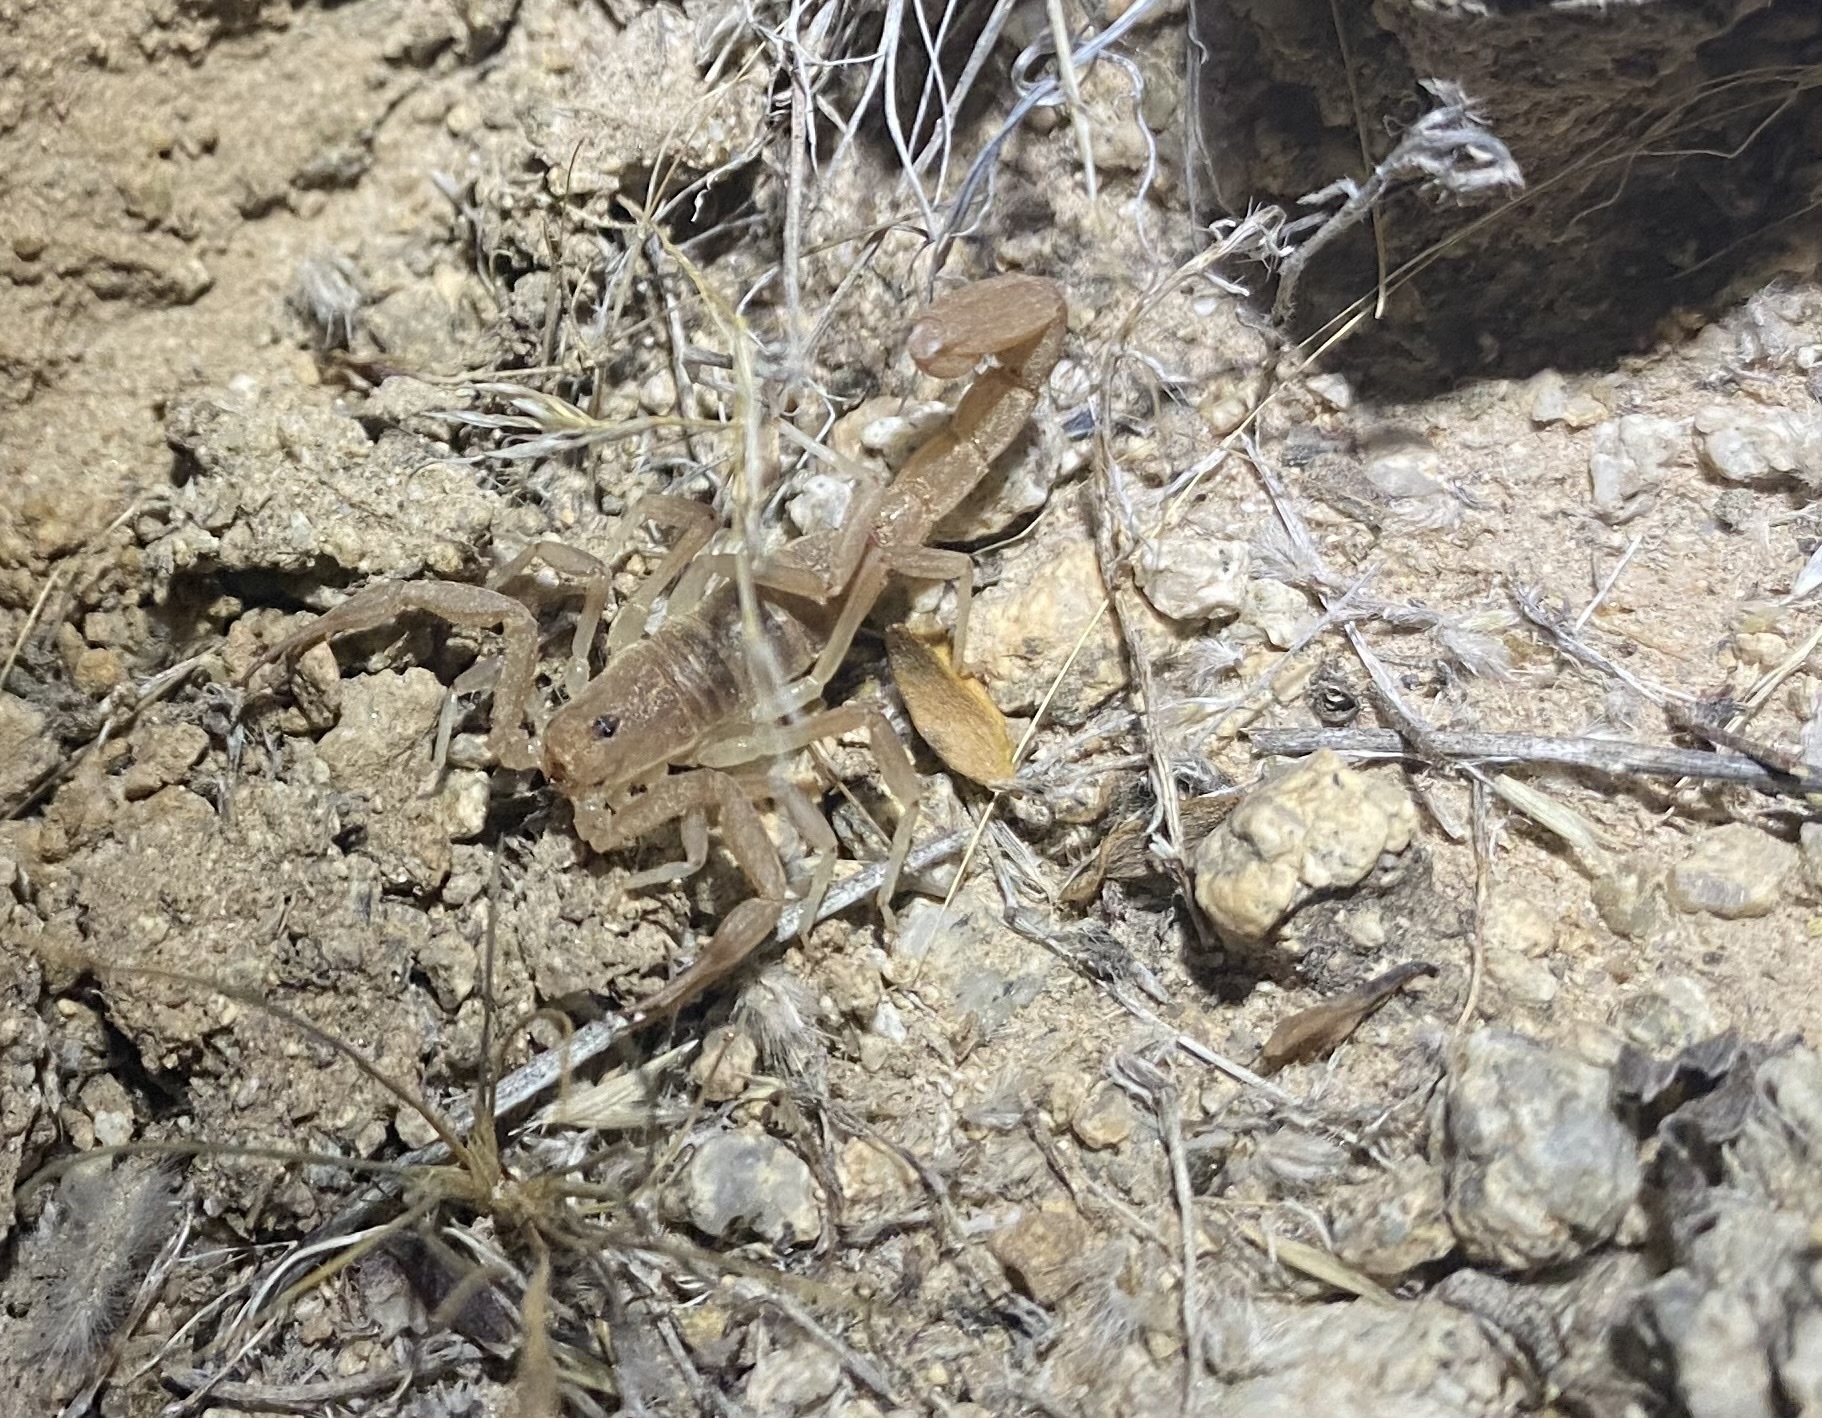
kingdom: Animalia
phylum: Arthropoda
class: Arachnida
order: Scorpiones
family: Vaejovidae
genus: Paravaejovis
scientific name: Paravaejovis confusus
